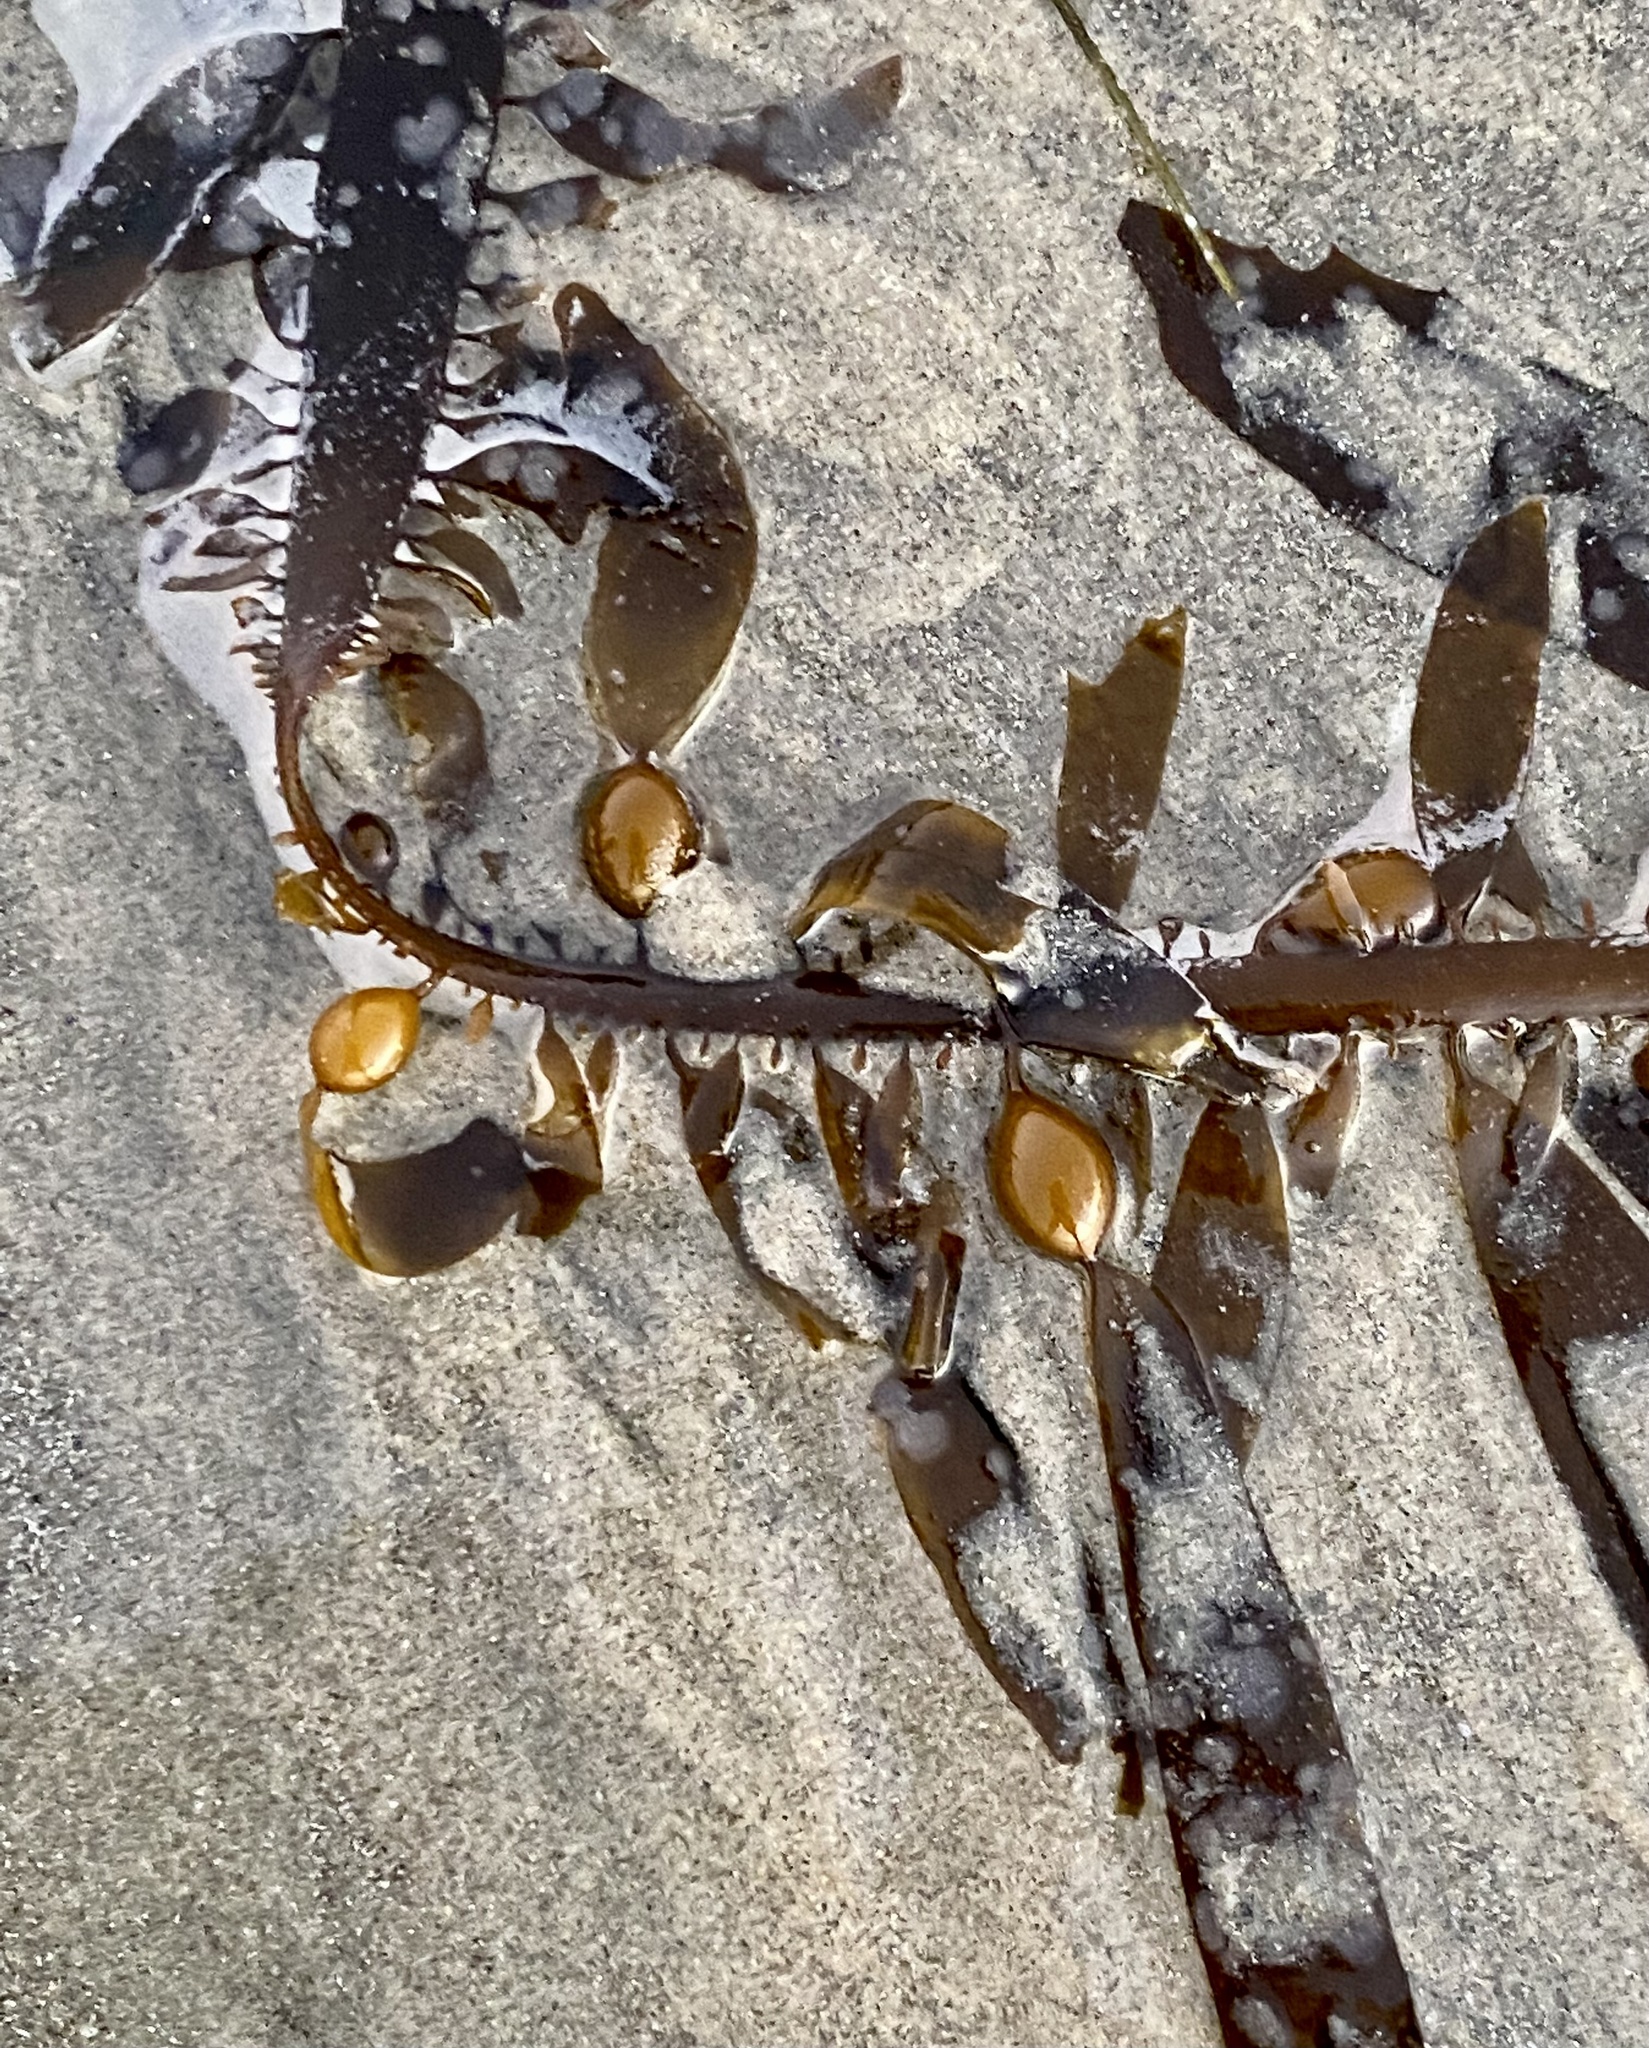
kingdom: Chromista
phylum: Ochrophyta
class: Phaeophyceae
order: Laminariales
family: Lessoniaceae
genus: Egregia
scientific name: Egregia menziesii
